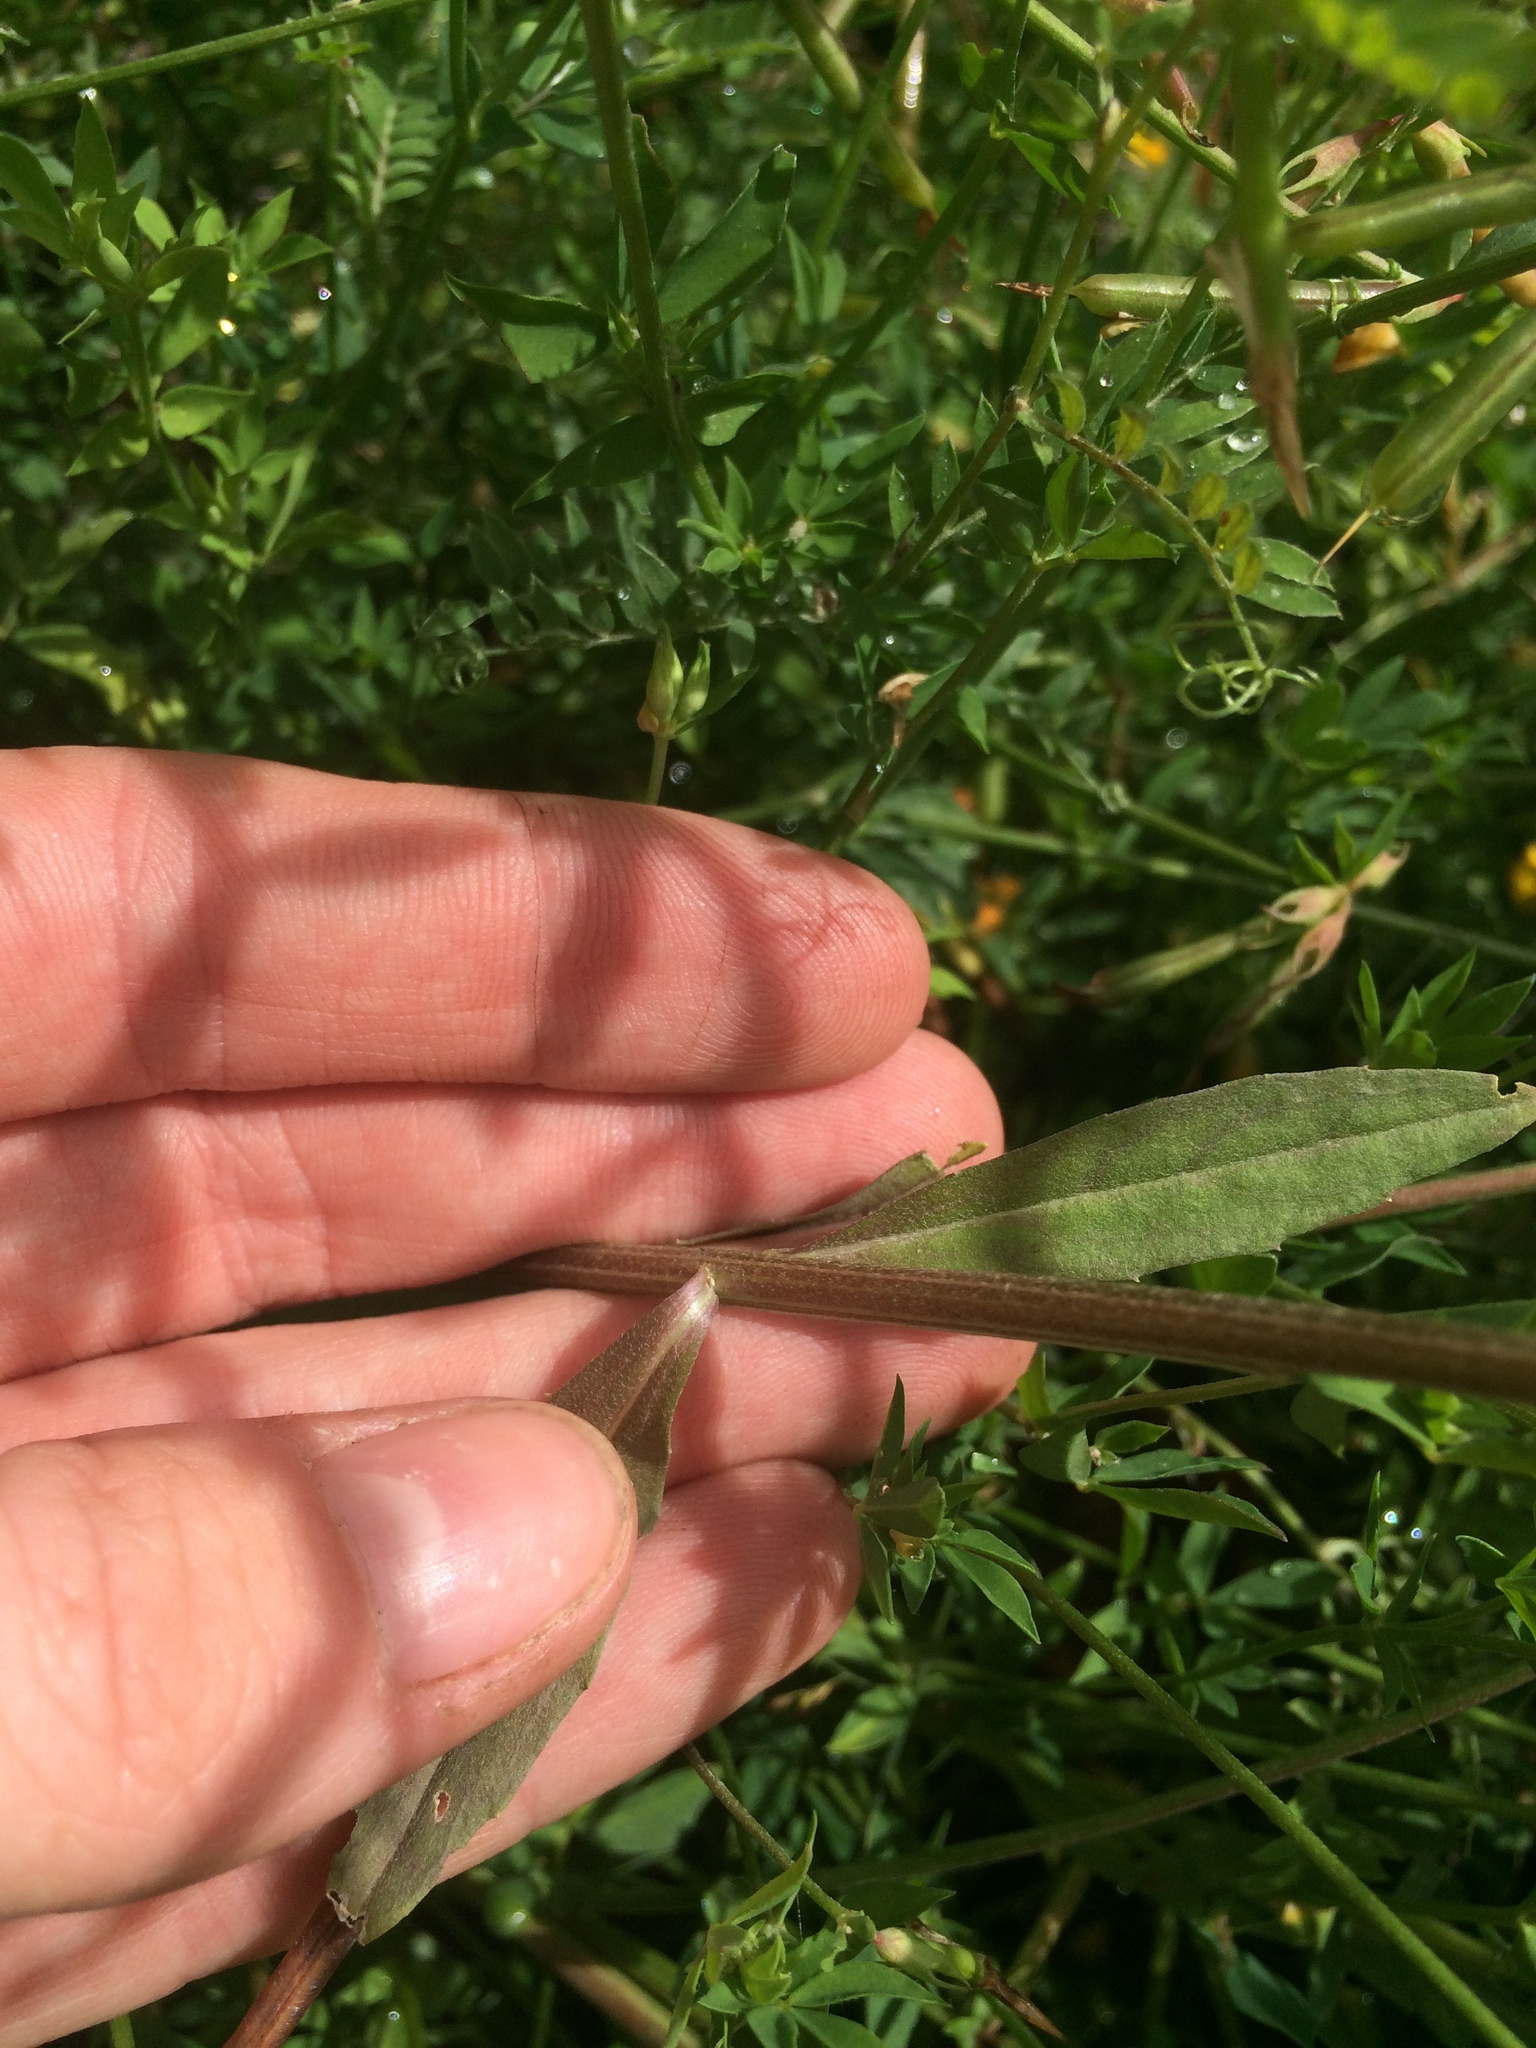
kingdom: Plantae
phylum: Tracheophyta
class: Magnoliopsida
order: Brassicales
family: Brassicaceae
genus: Erysimum
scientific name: Erysimum hieraciifolium
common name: European wallflower
